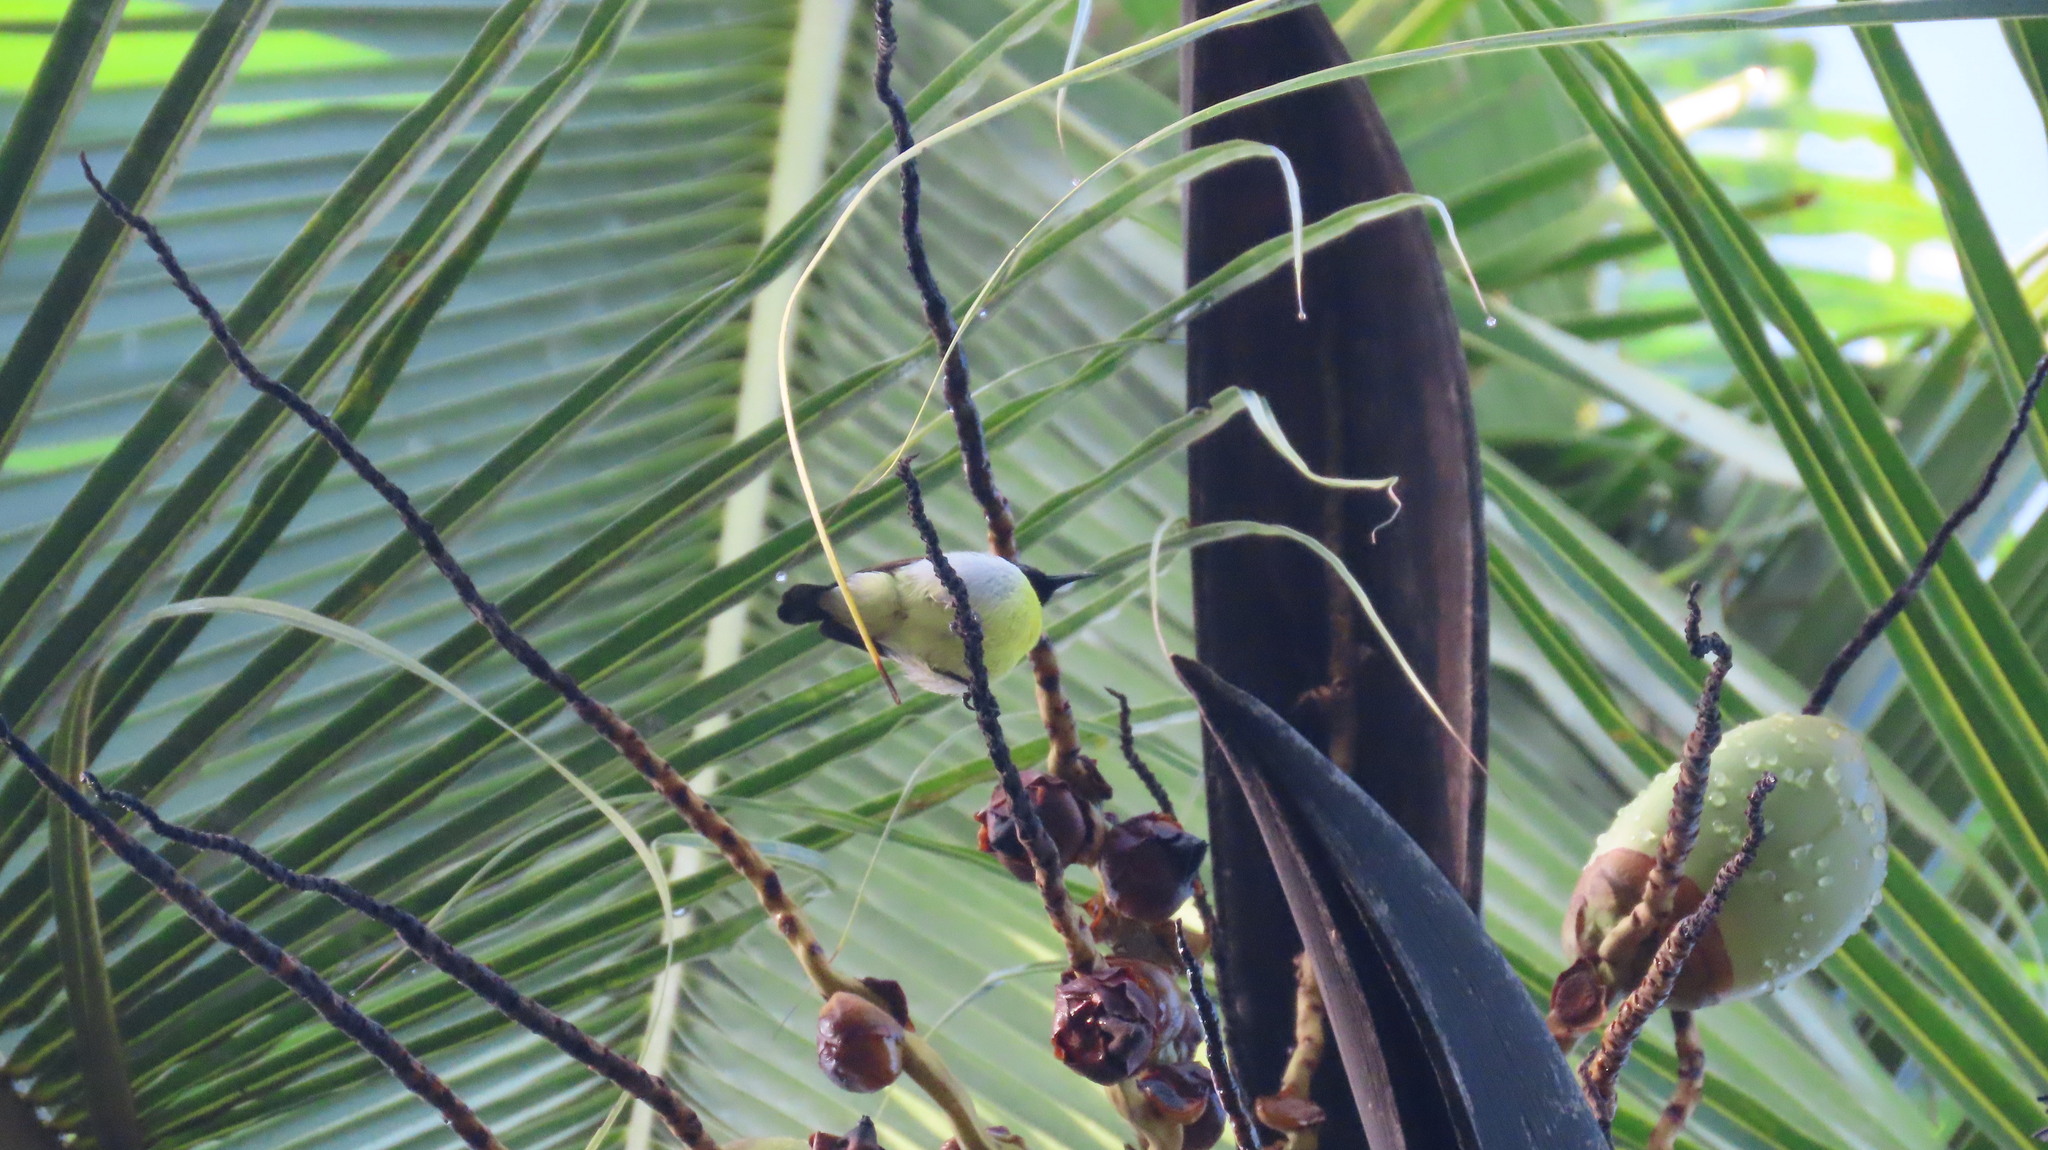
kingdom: Animalia
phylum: Chordata
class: Aves
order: Passeriformes
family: Nectariniidae
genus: Leptocoma
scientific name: Leptocoma zeylonica
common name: Purple-rumped sunbird
